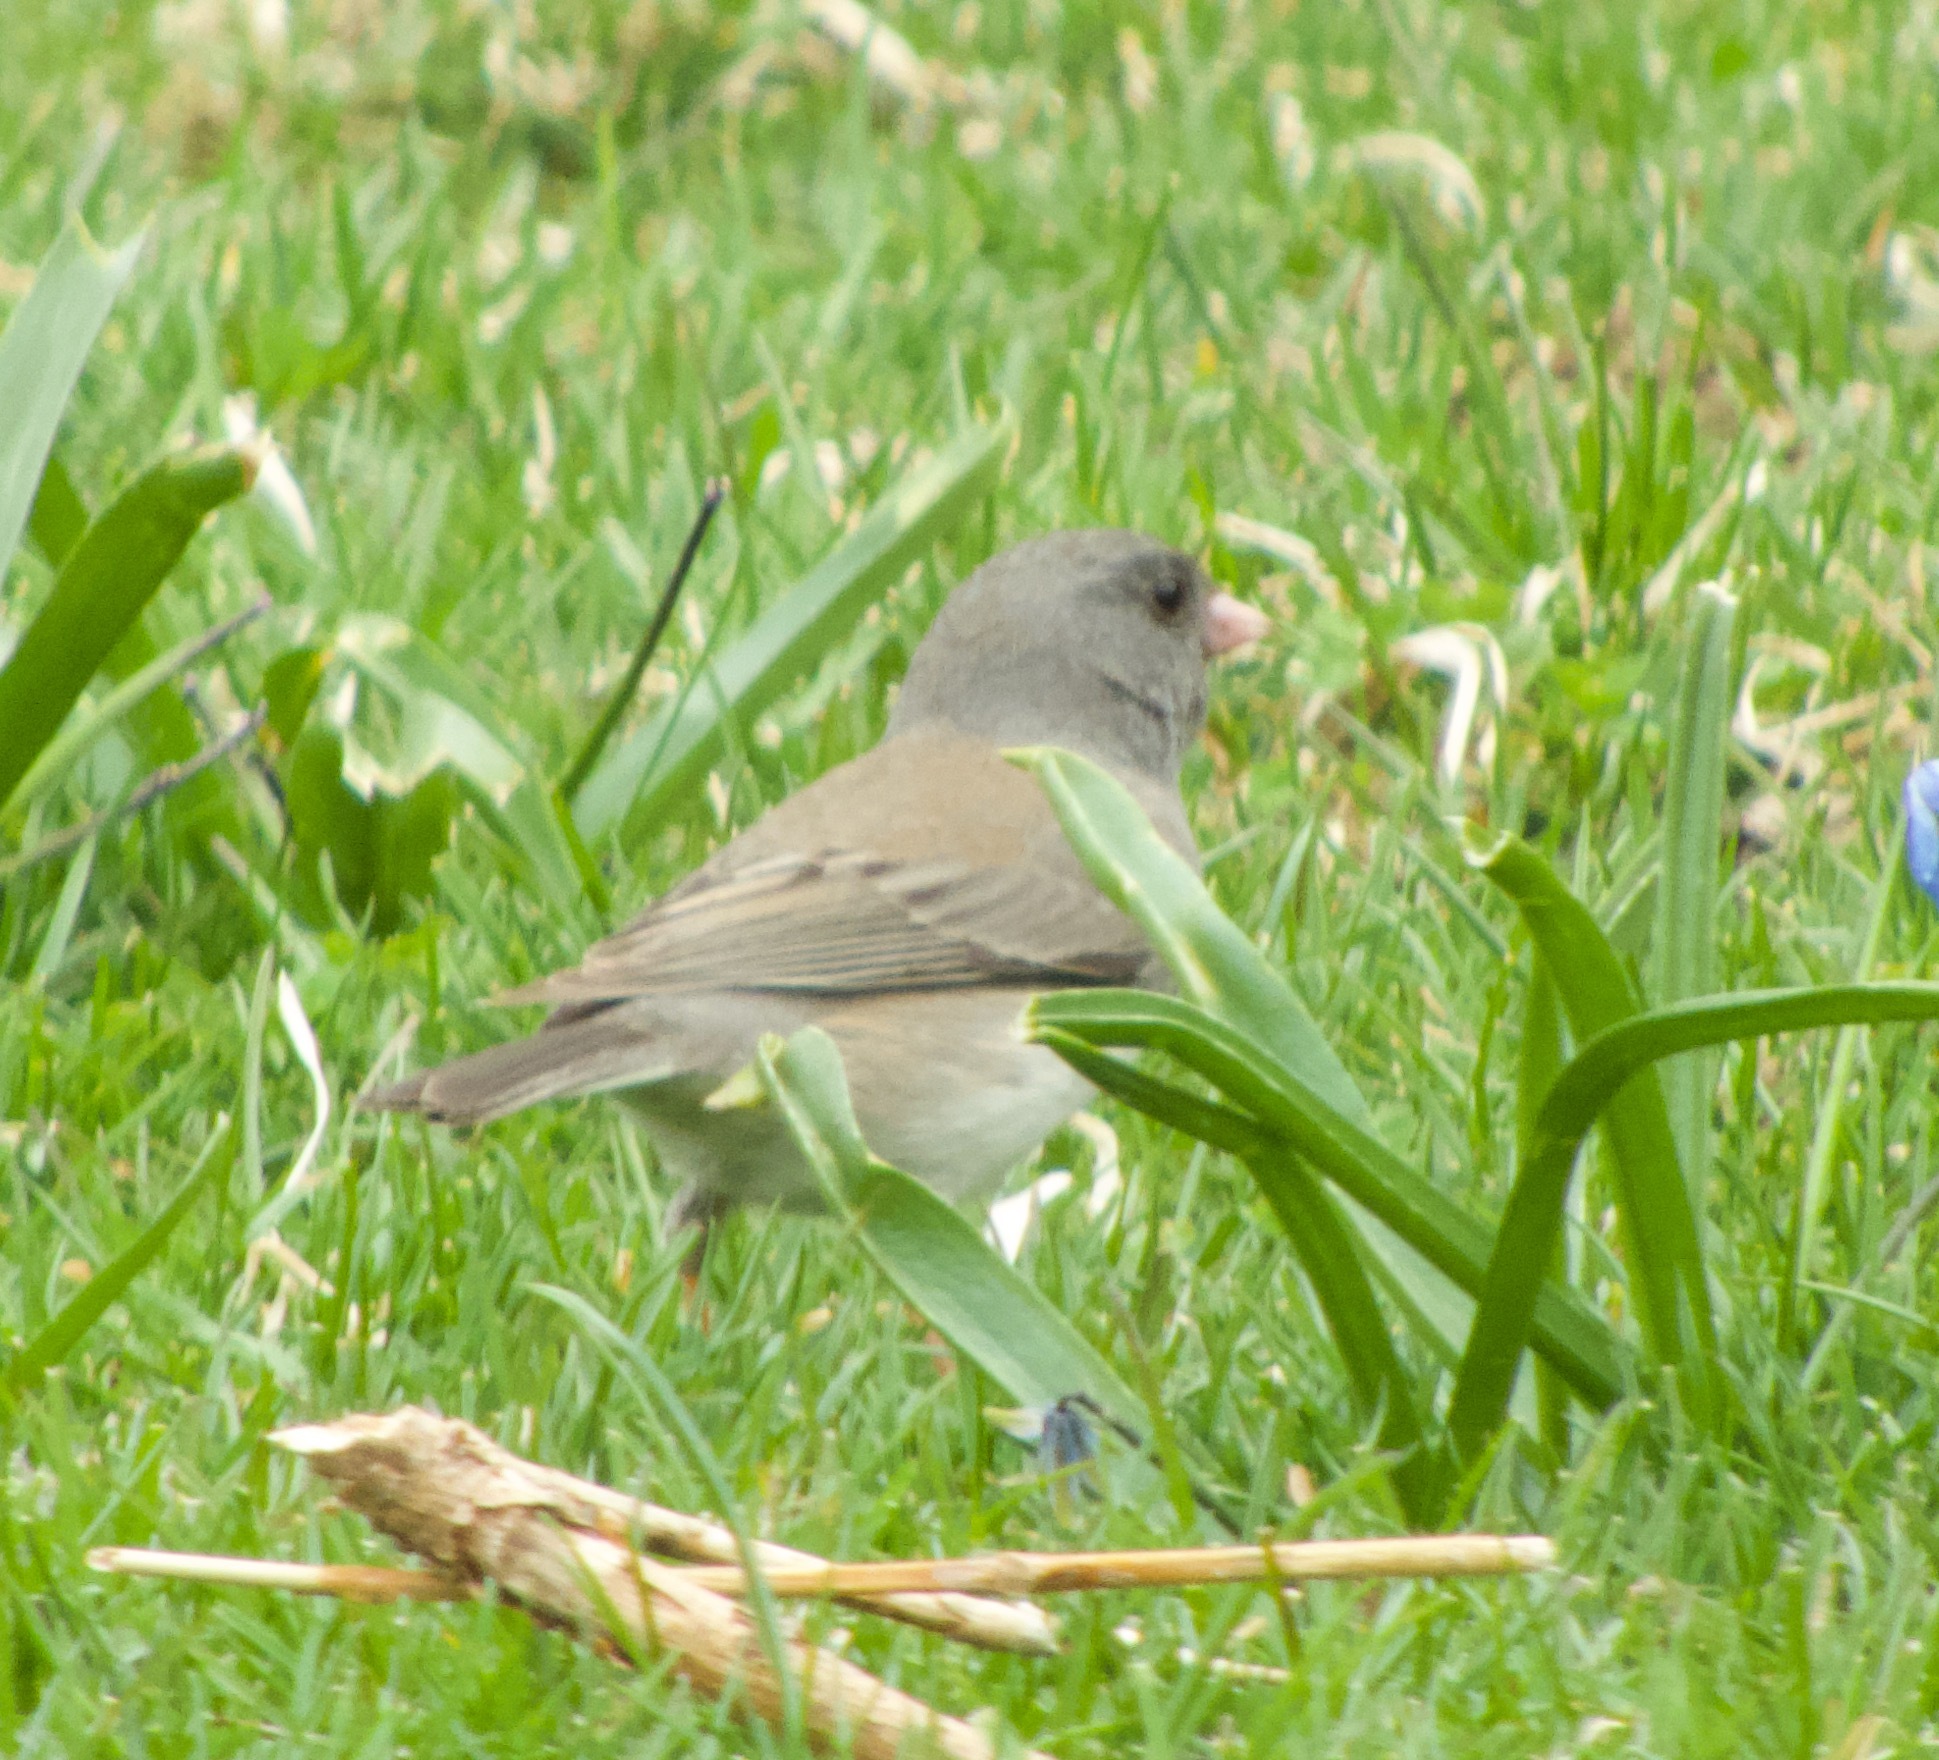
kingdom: Animalia
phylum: Chordata
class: Aves
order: Passeriformes
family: Passerellidae
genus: Junco
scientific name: Junco hyemalis
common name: Dark-eyed junco
